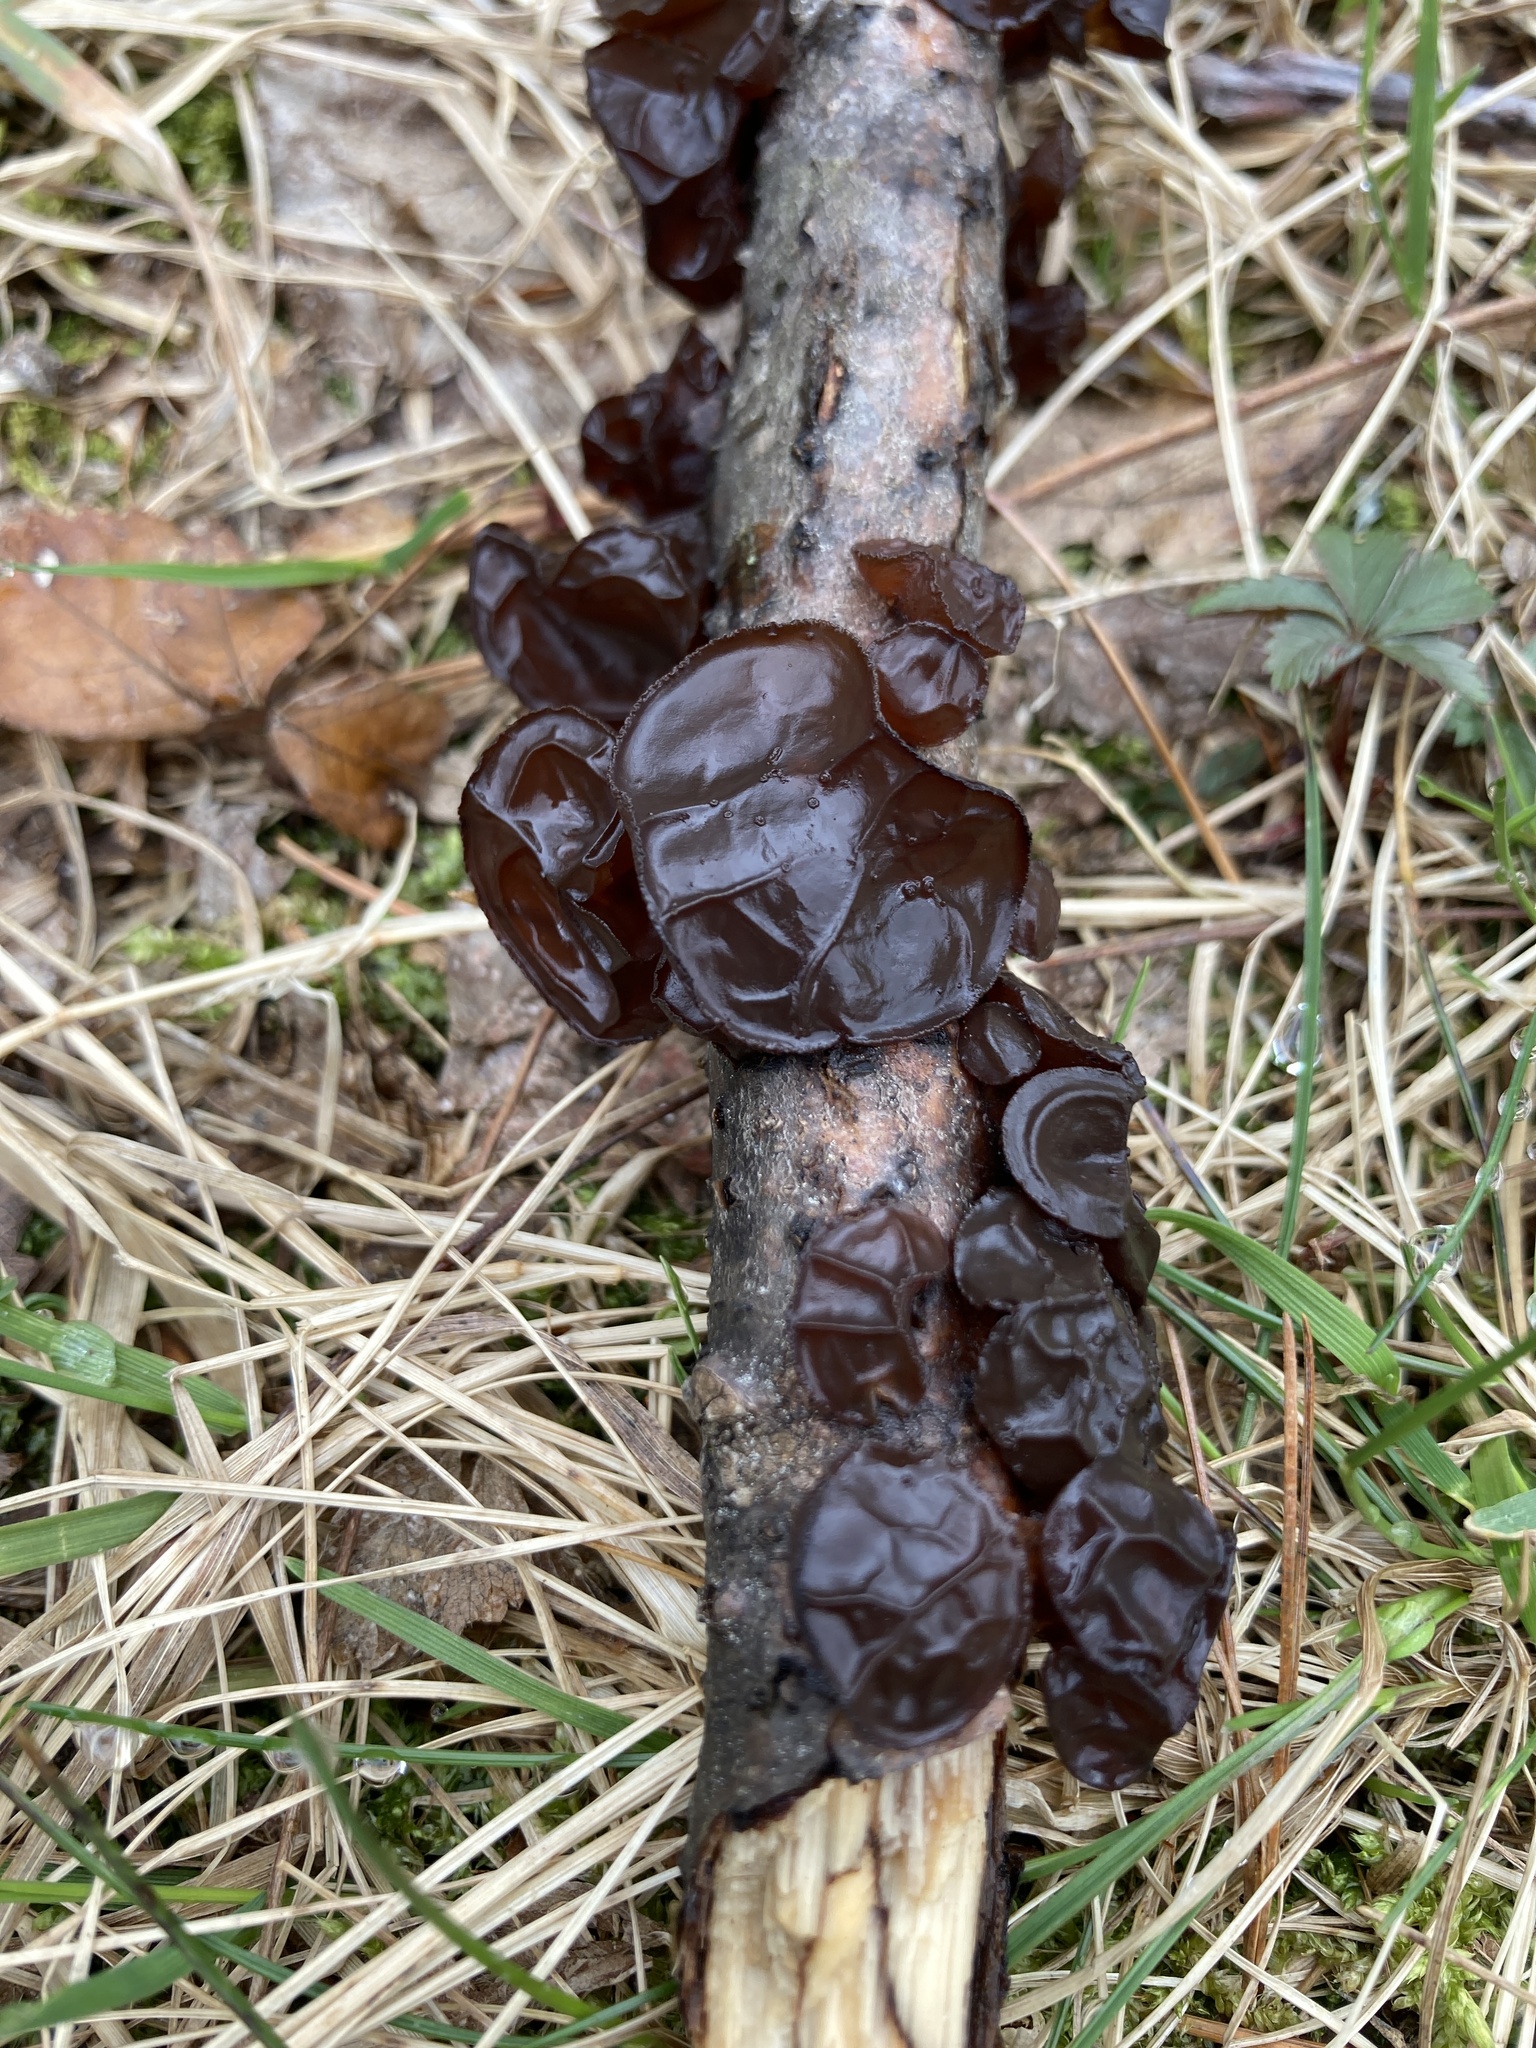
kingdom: Fungi
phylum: Basidiomycota
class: Agaricomycetes
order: Auriculariales
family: Auriculariaceae
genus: Exidia
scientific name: Exidia
